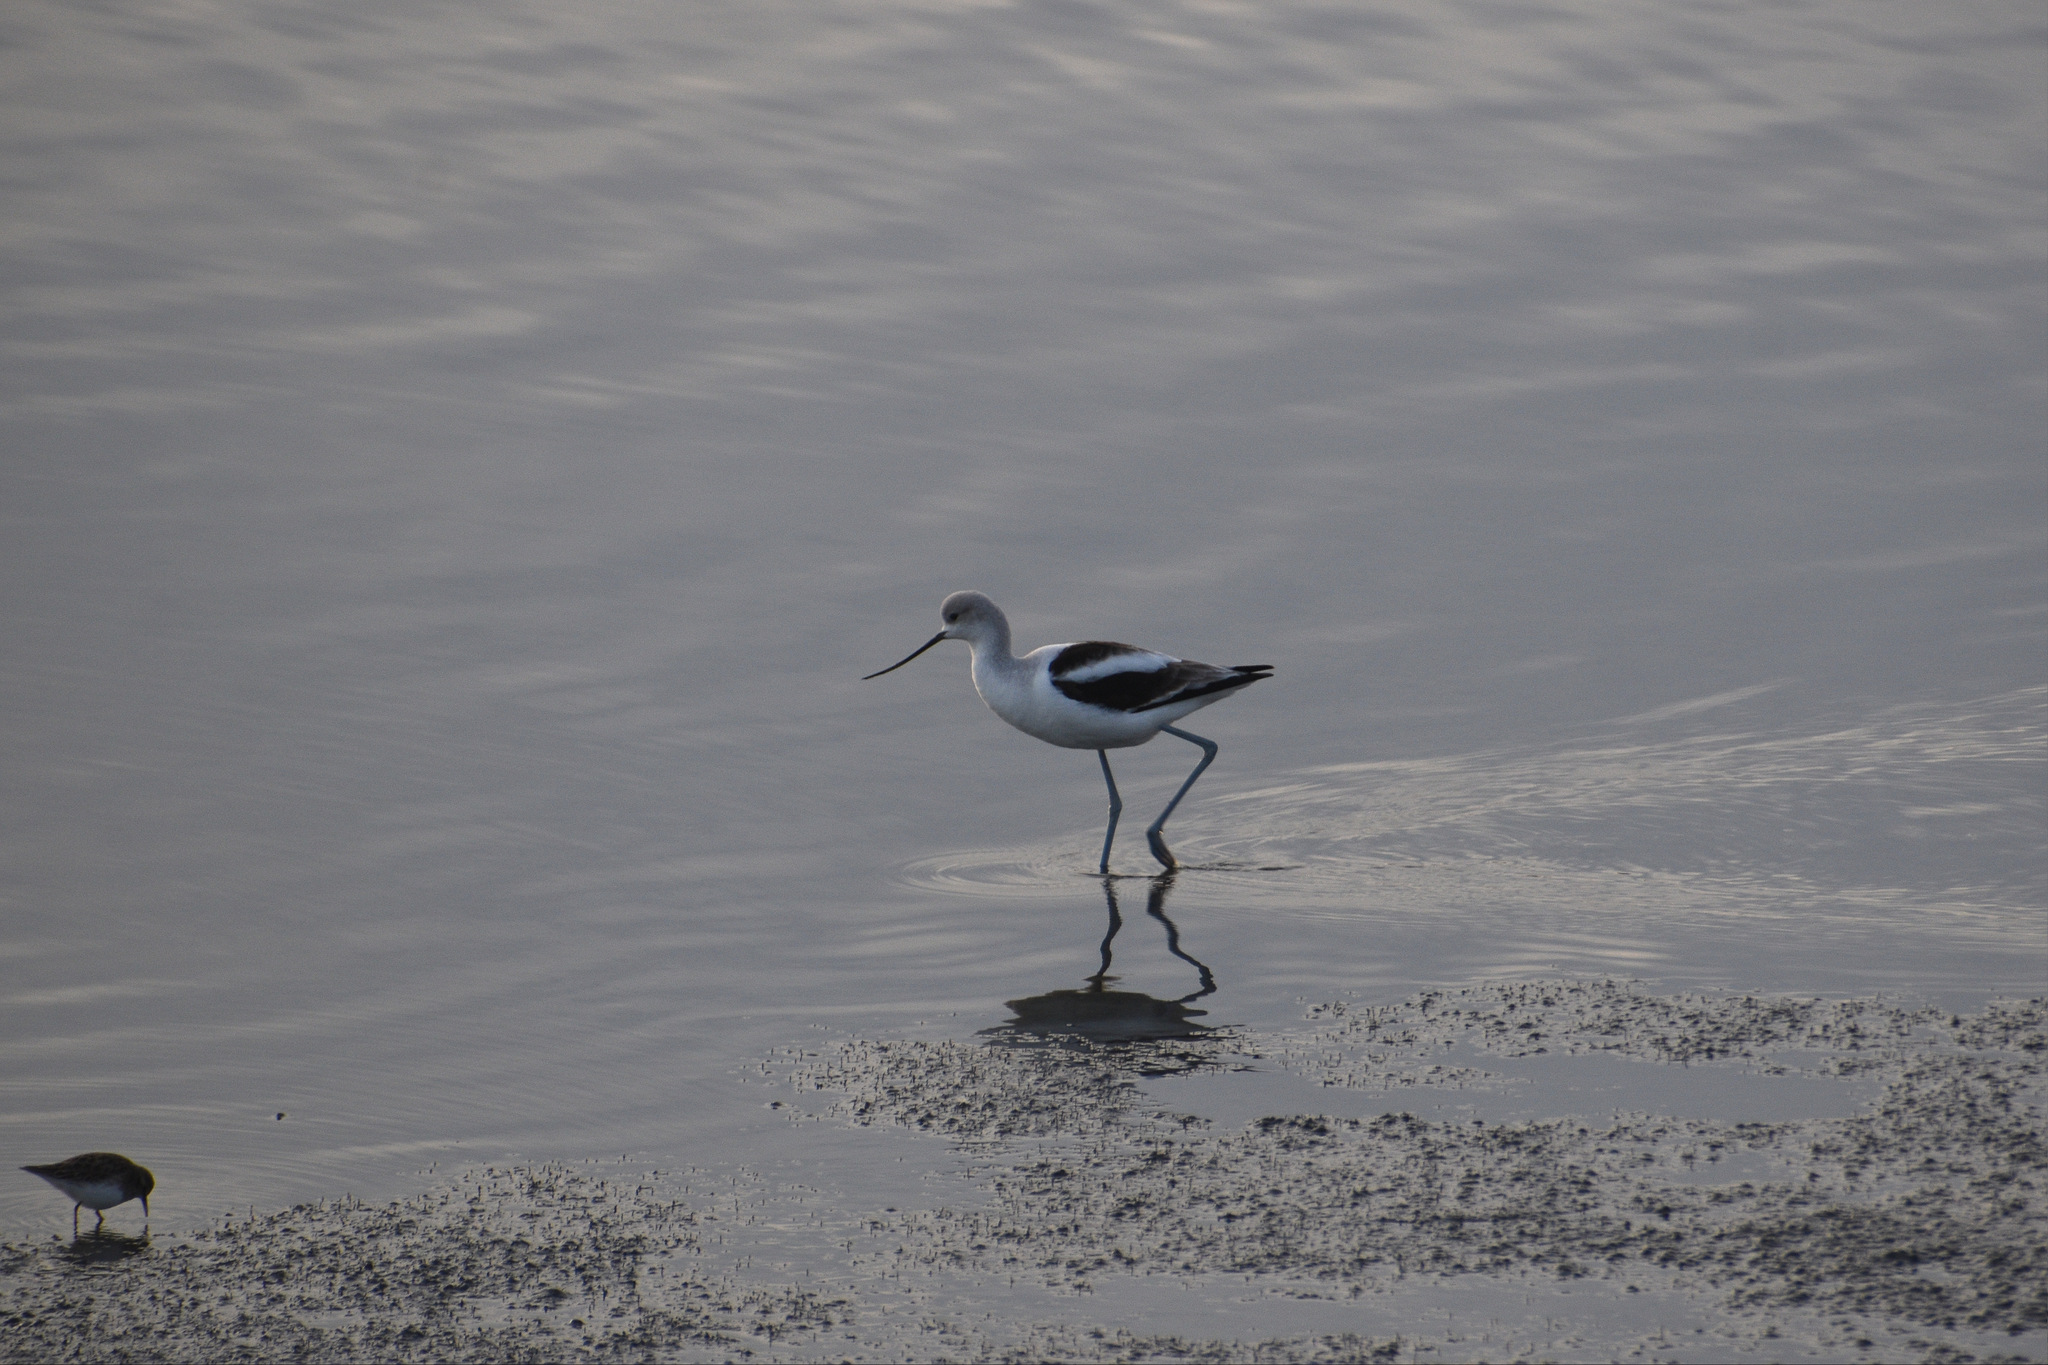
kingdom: Animalia
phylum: Chordata
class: Aves
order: Charadriiformes
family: Recurvirostridae
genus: Recurvirostra
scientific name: Recurvirostra americana
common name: American avocet
